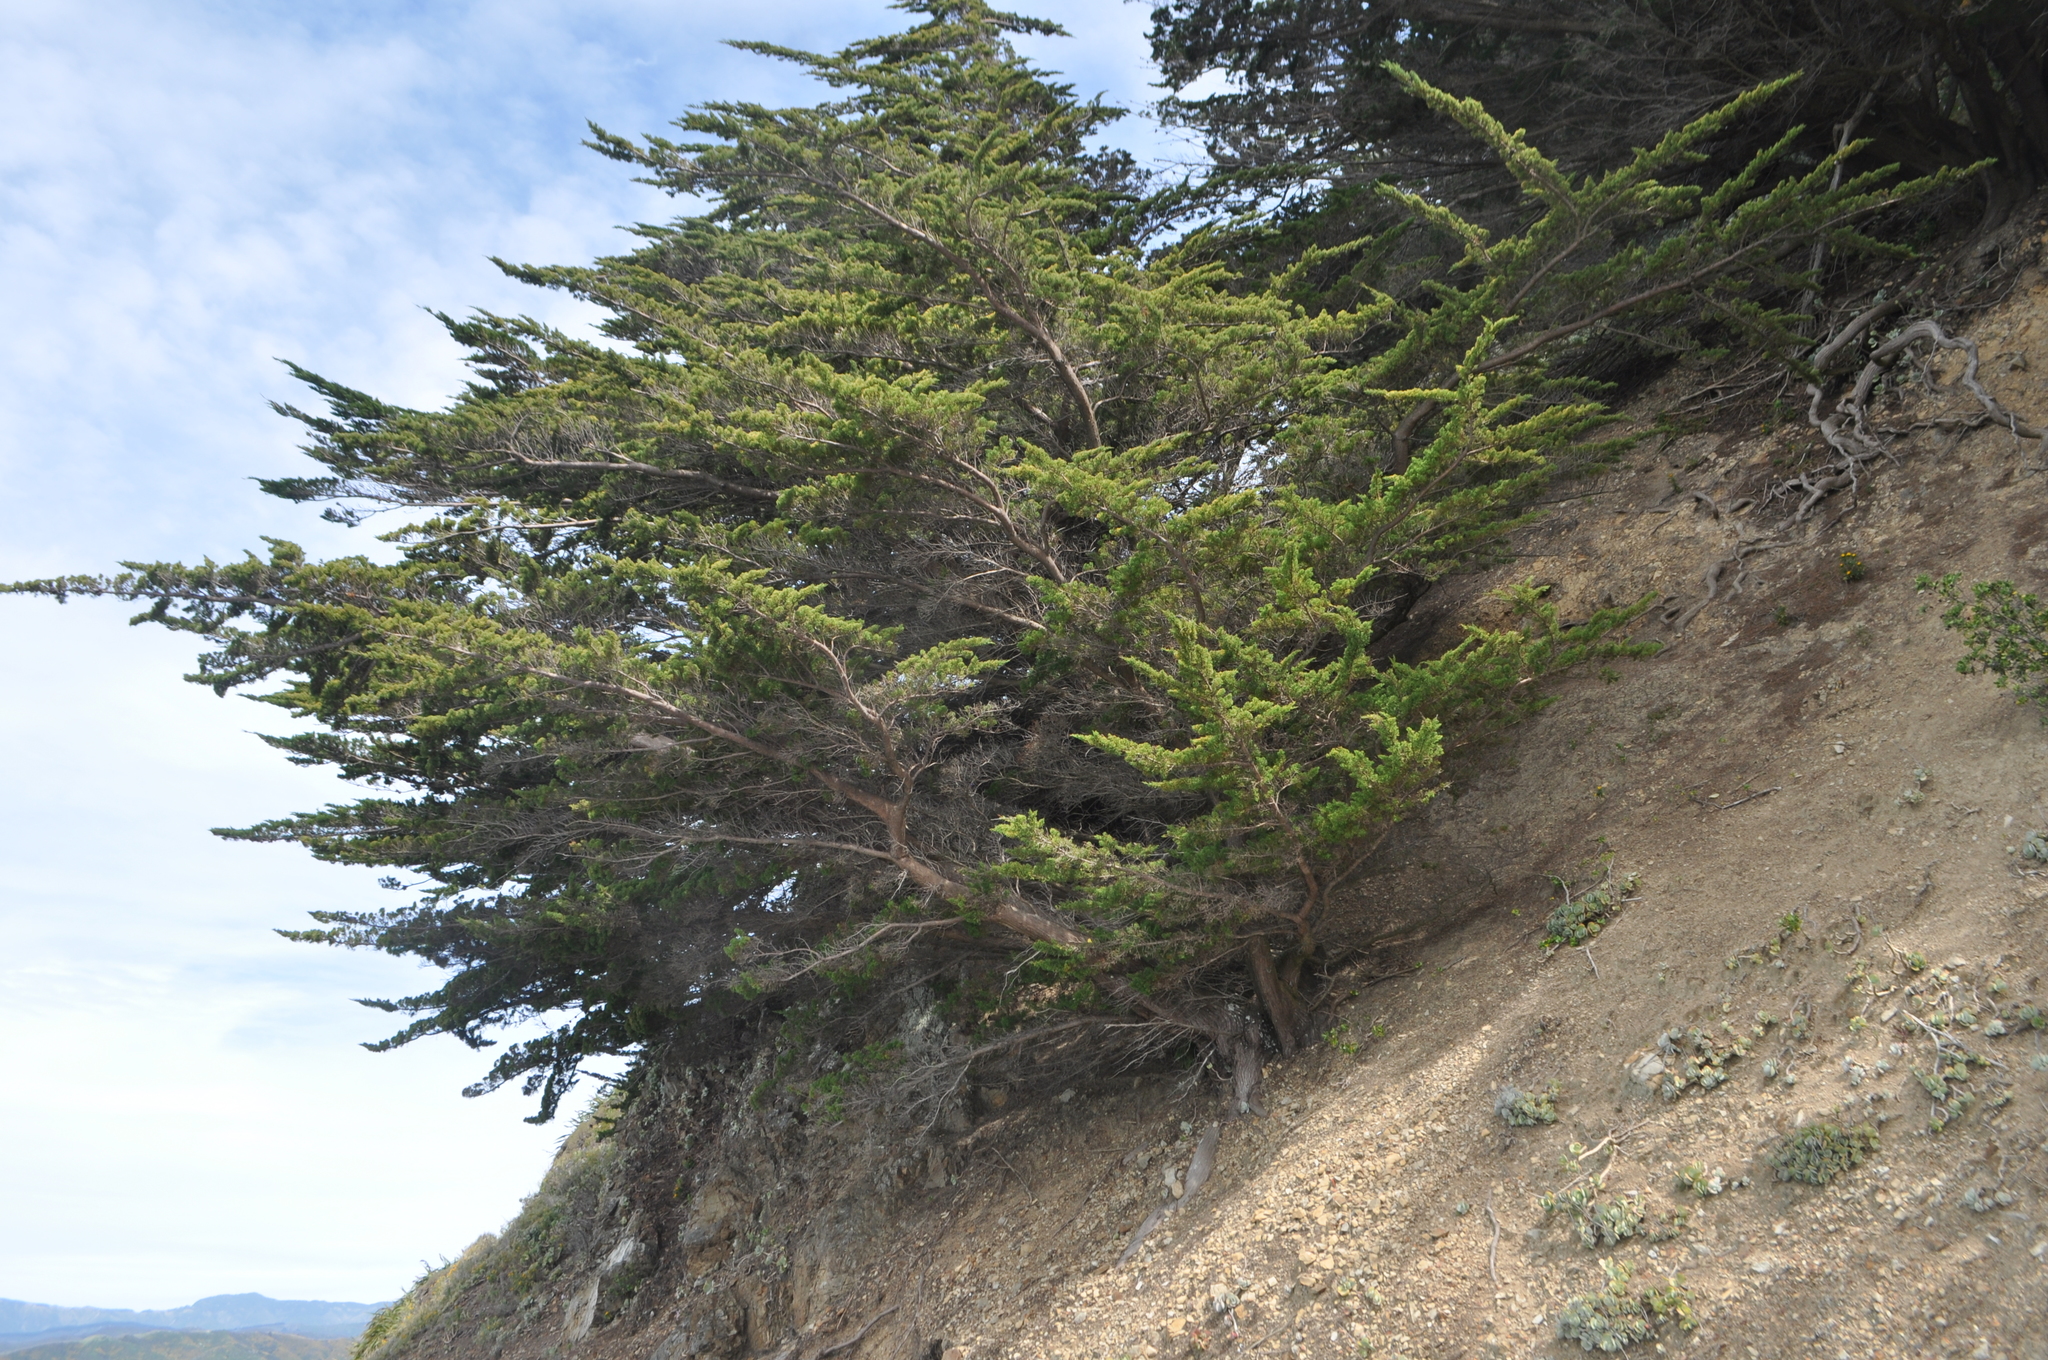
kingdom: Plantae
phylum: Tracheophyta
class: Pinopsida
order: Pinales
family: Cupressaceae
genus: Cupressus
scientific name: Cupressus macrocarpa
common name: Monterey cypress
